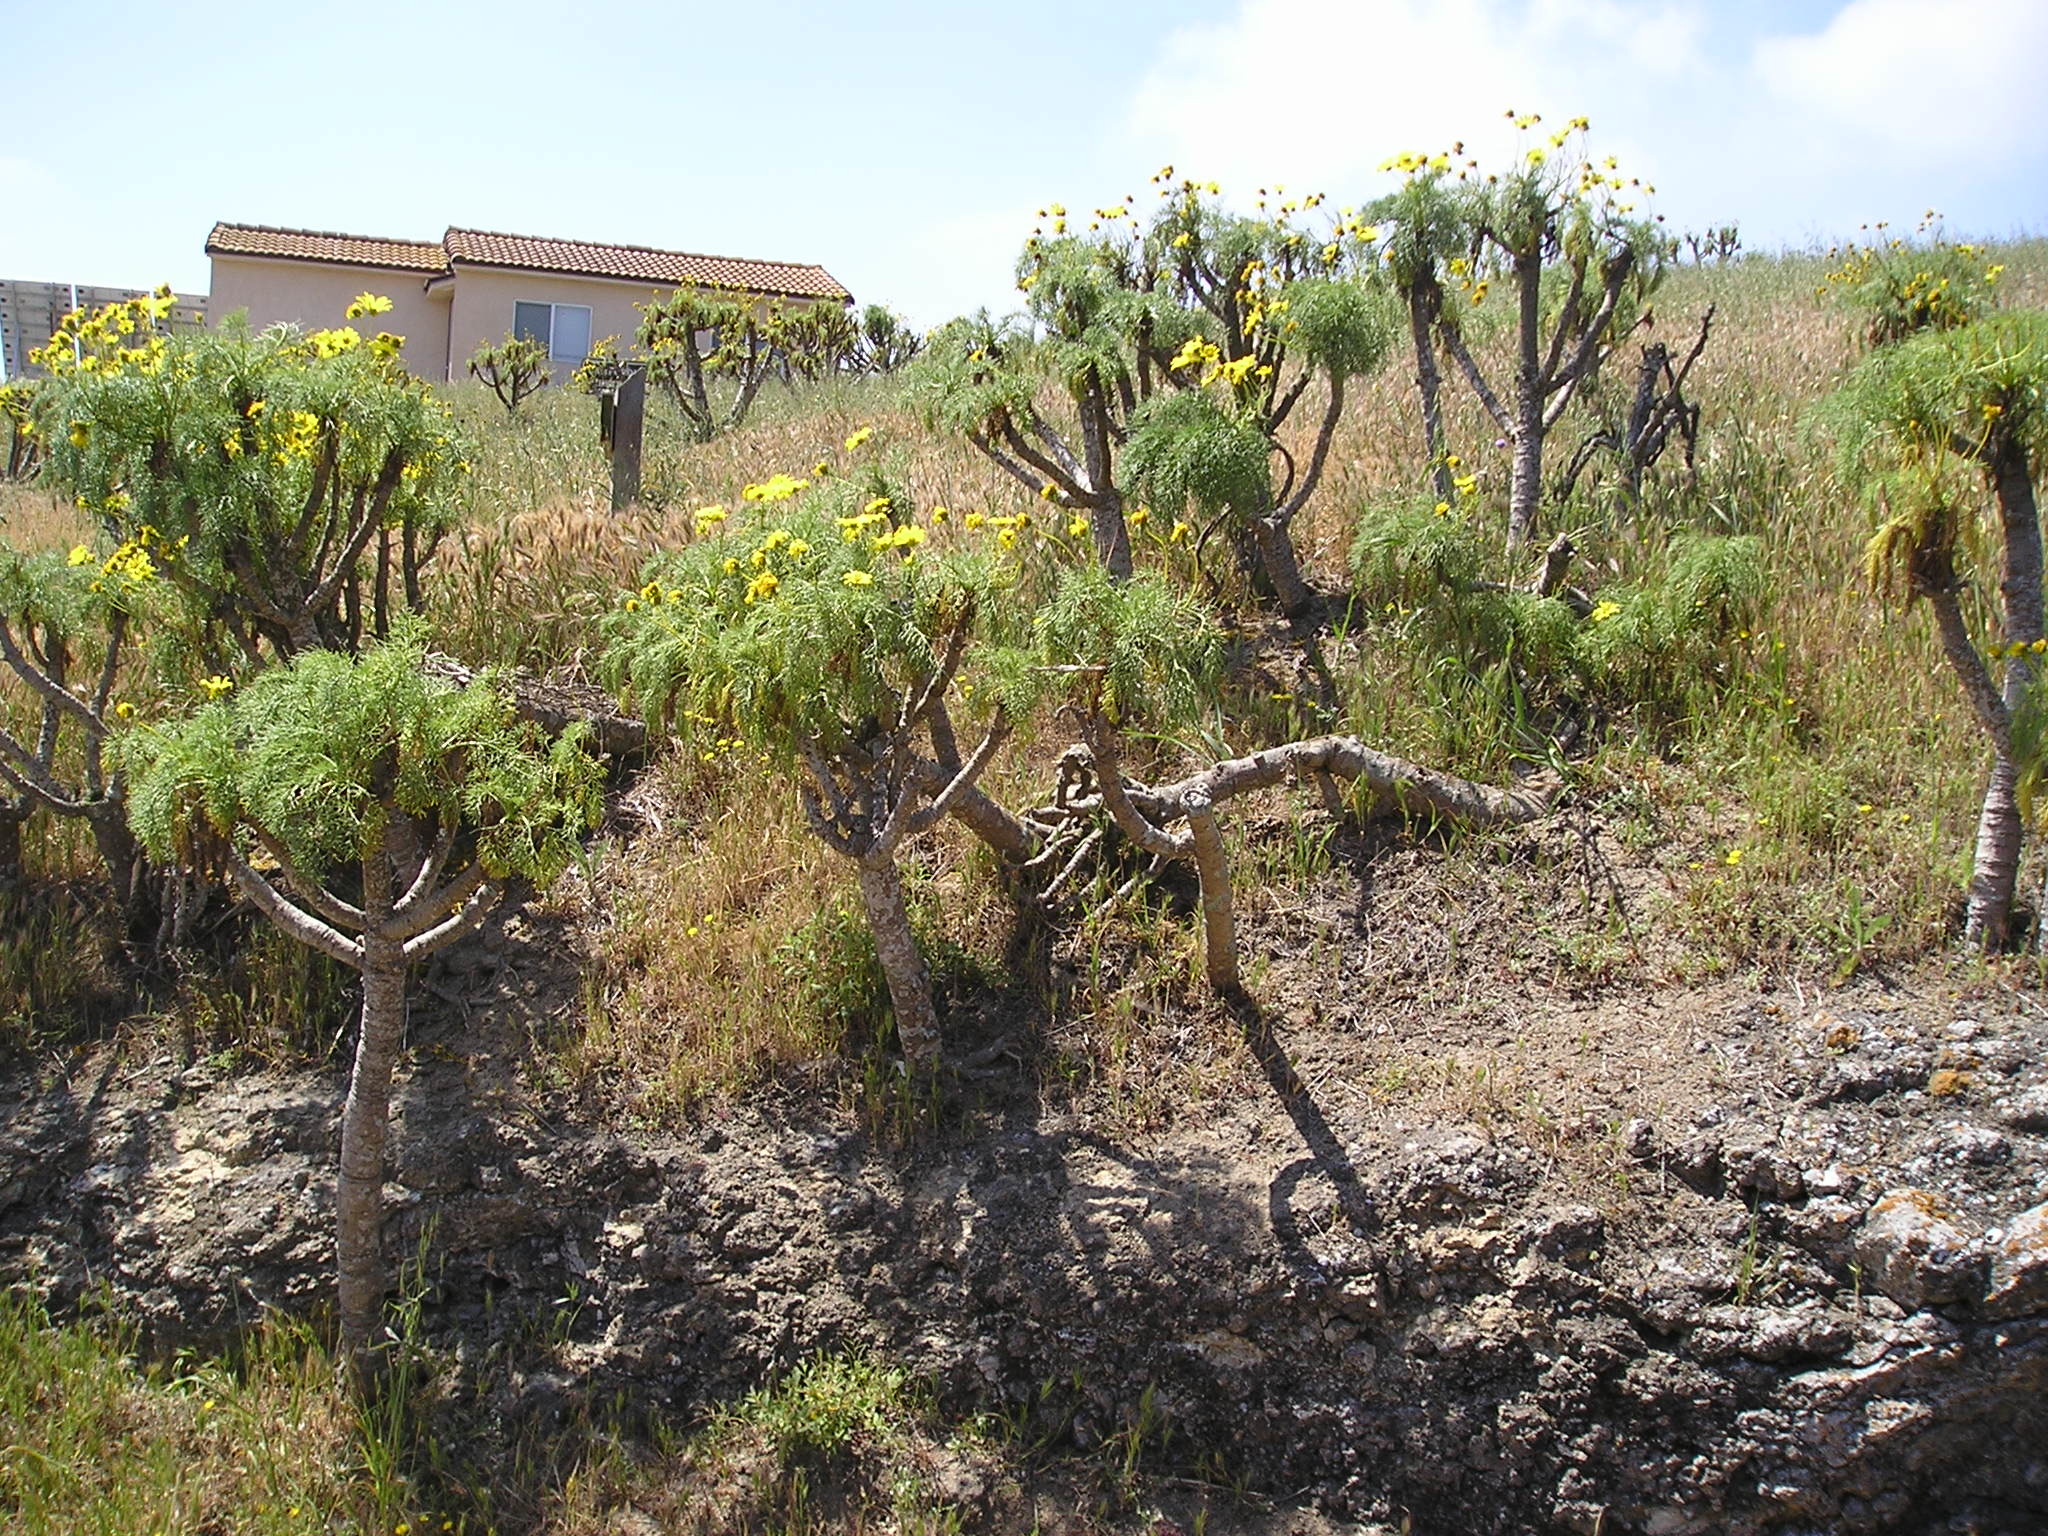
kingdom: Plantae
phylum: Tracheophyta
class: Magnoliopsida
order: Asterales
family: Asteraceae
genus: Coreopsis
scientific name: Coreopsis gigantea
